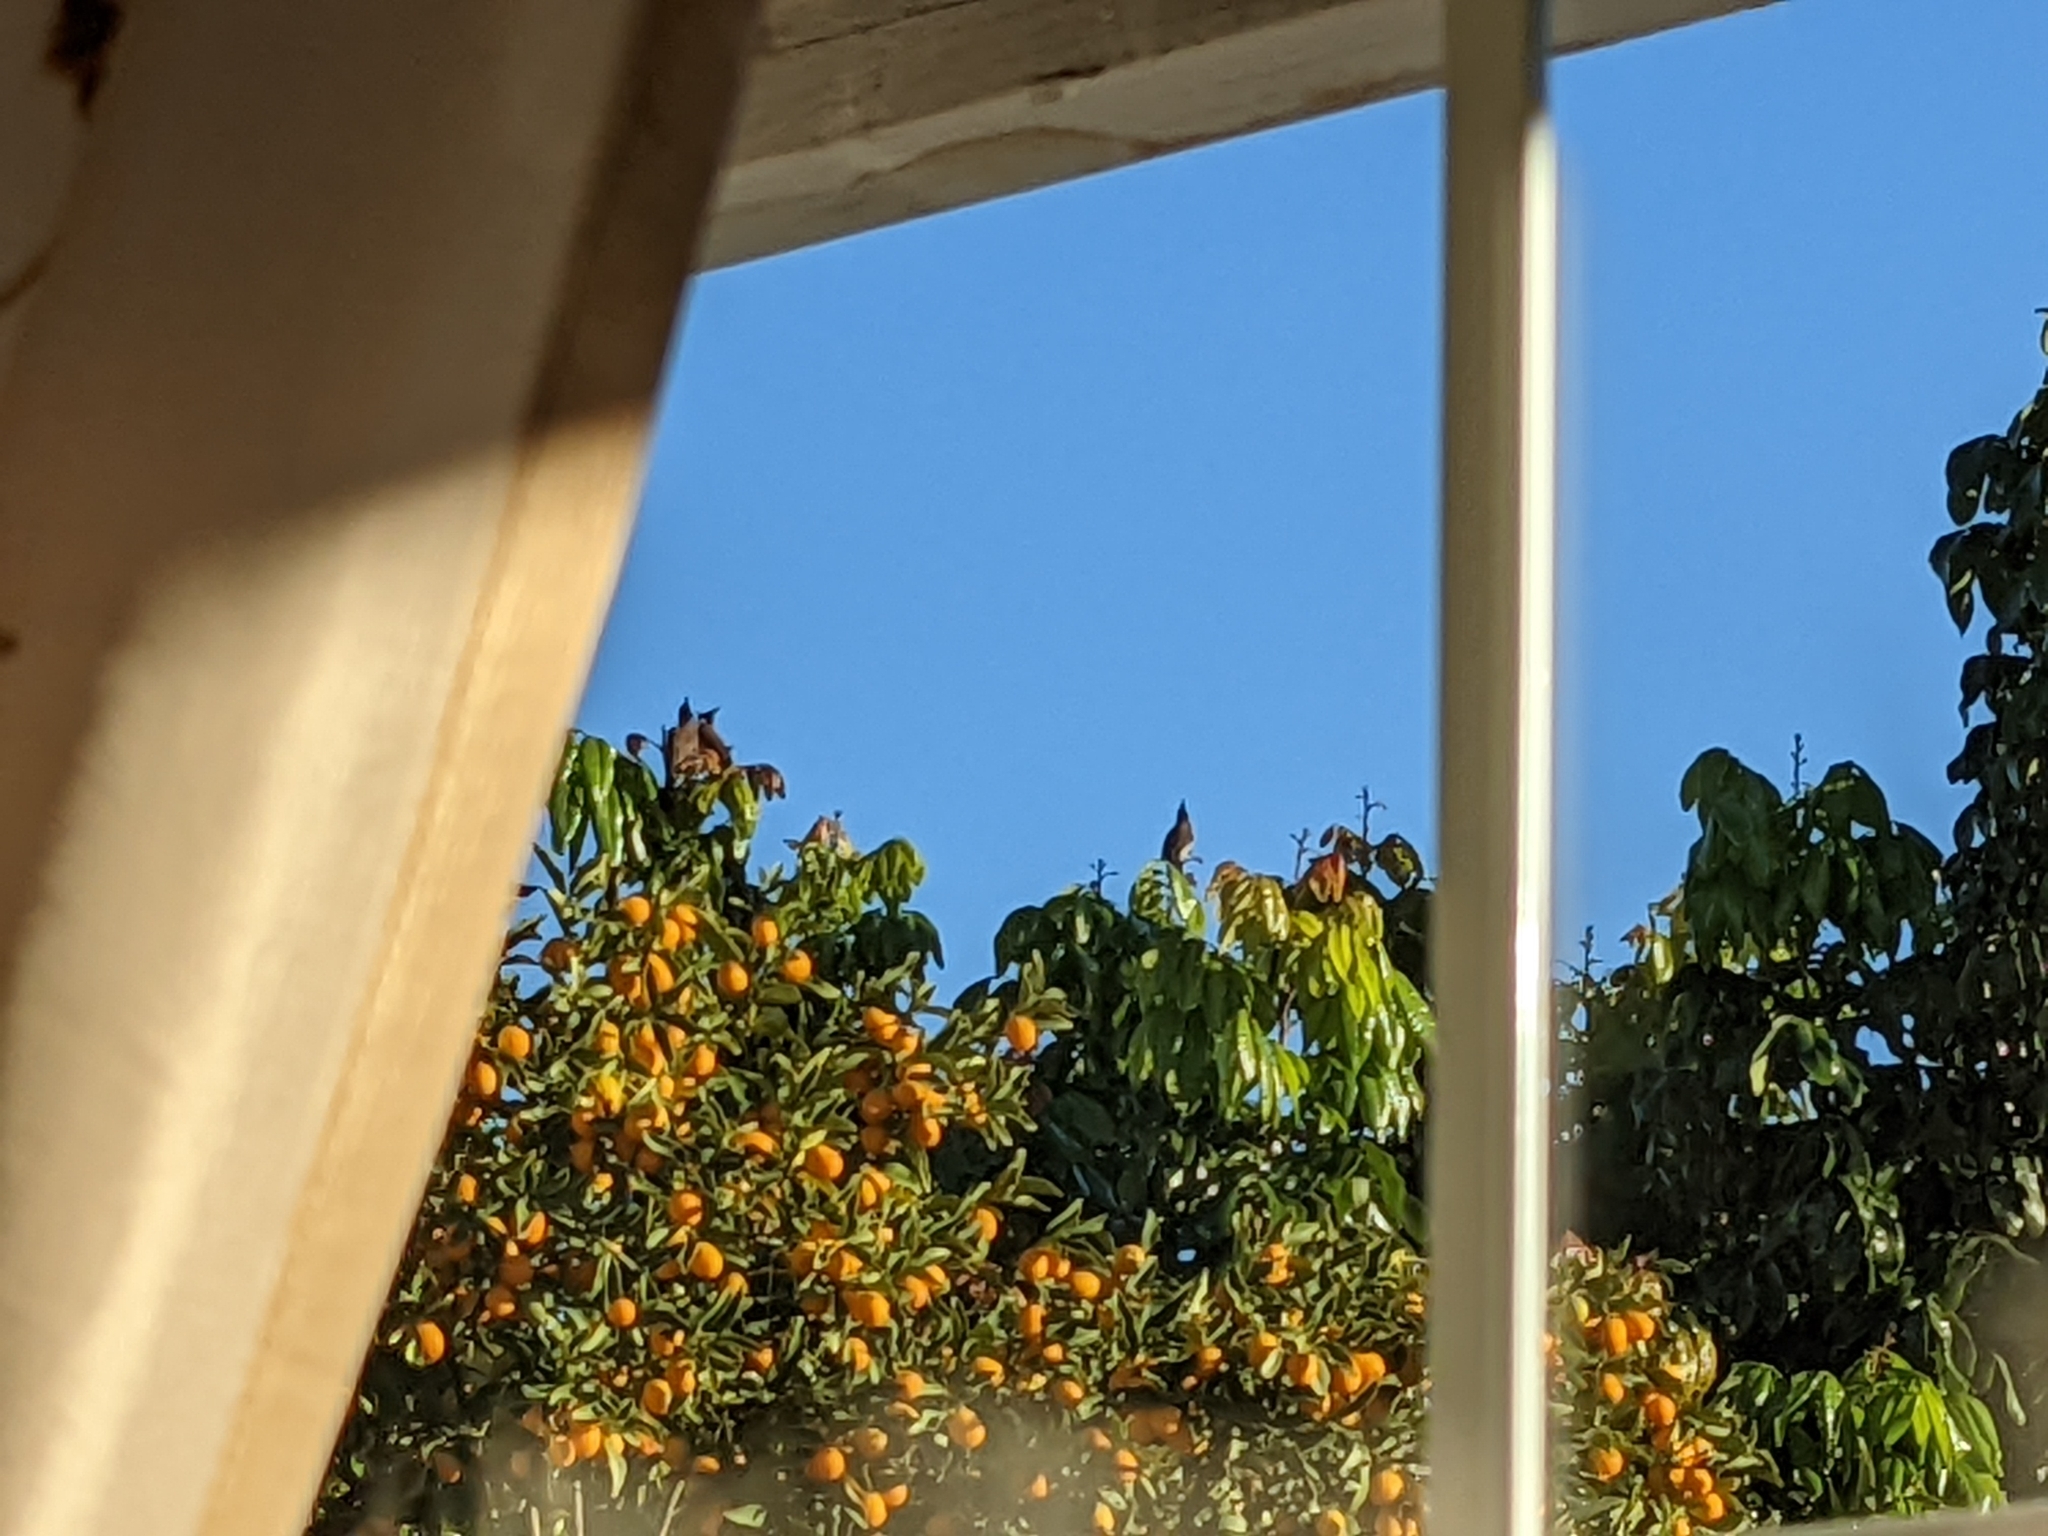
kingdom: Animalia
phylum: Chordata
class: Aves
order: Passeriformes
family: Pycnonotidae
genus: Pycnonotus
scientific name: Pycnonotus jocosus
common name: Red-whiskered bulbul
